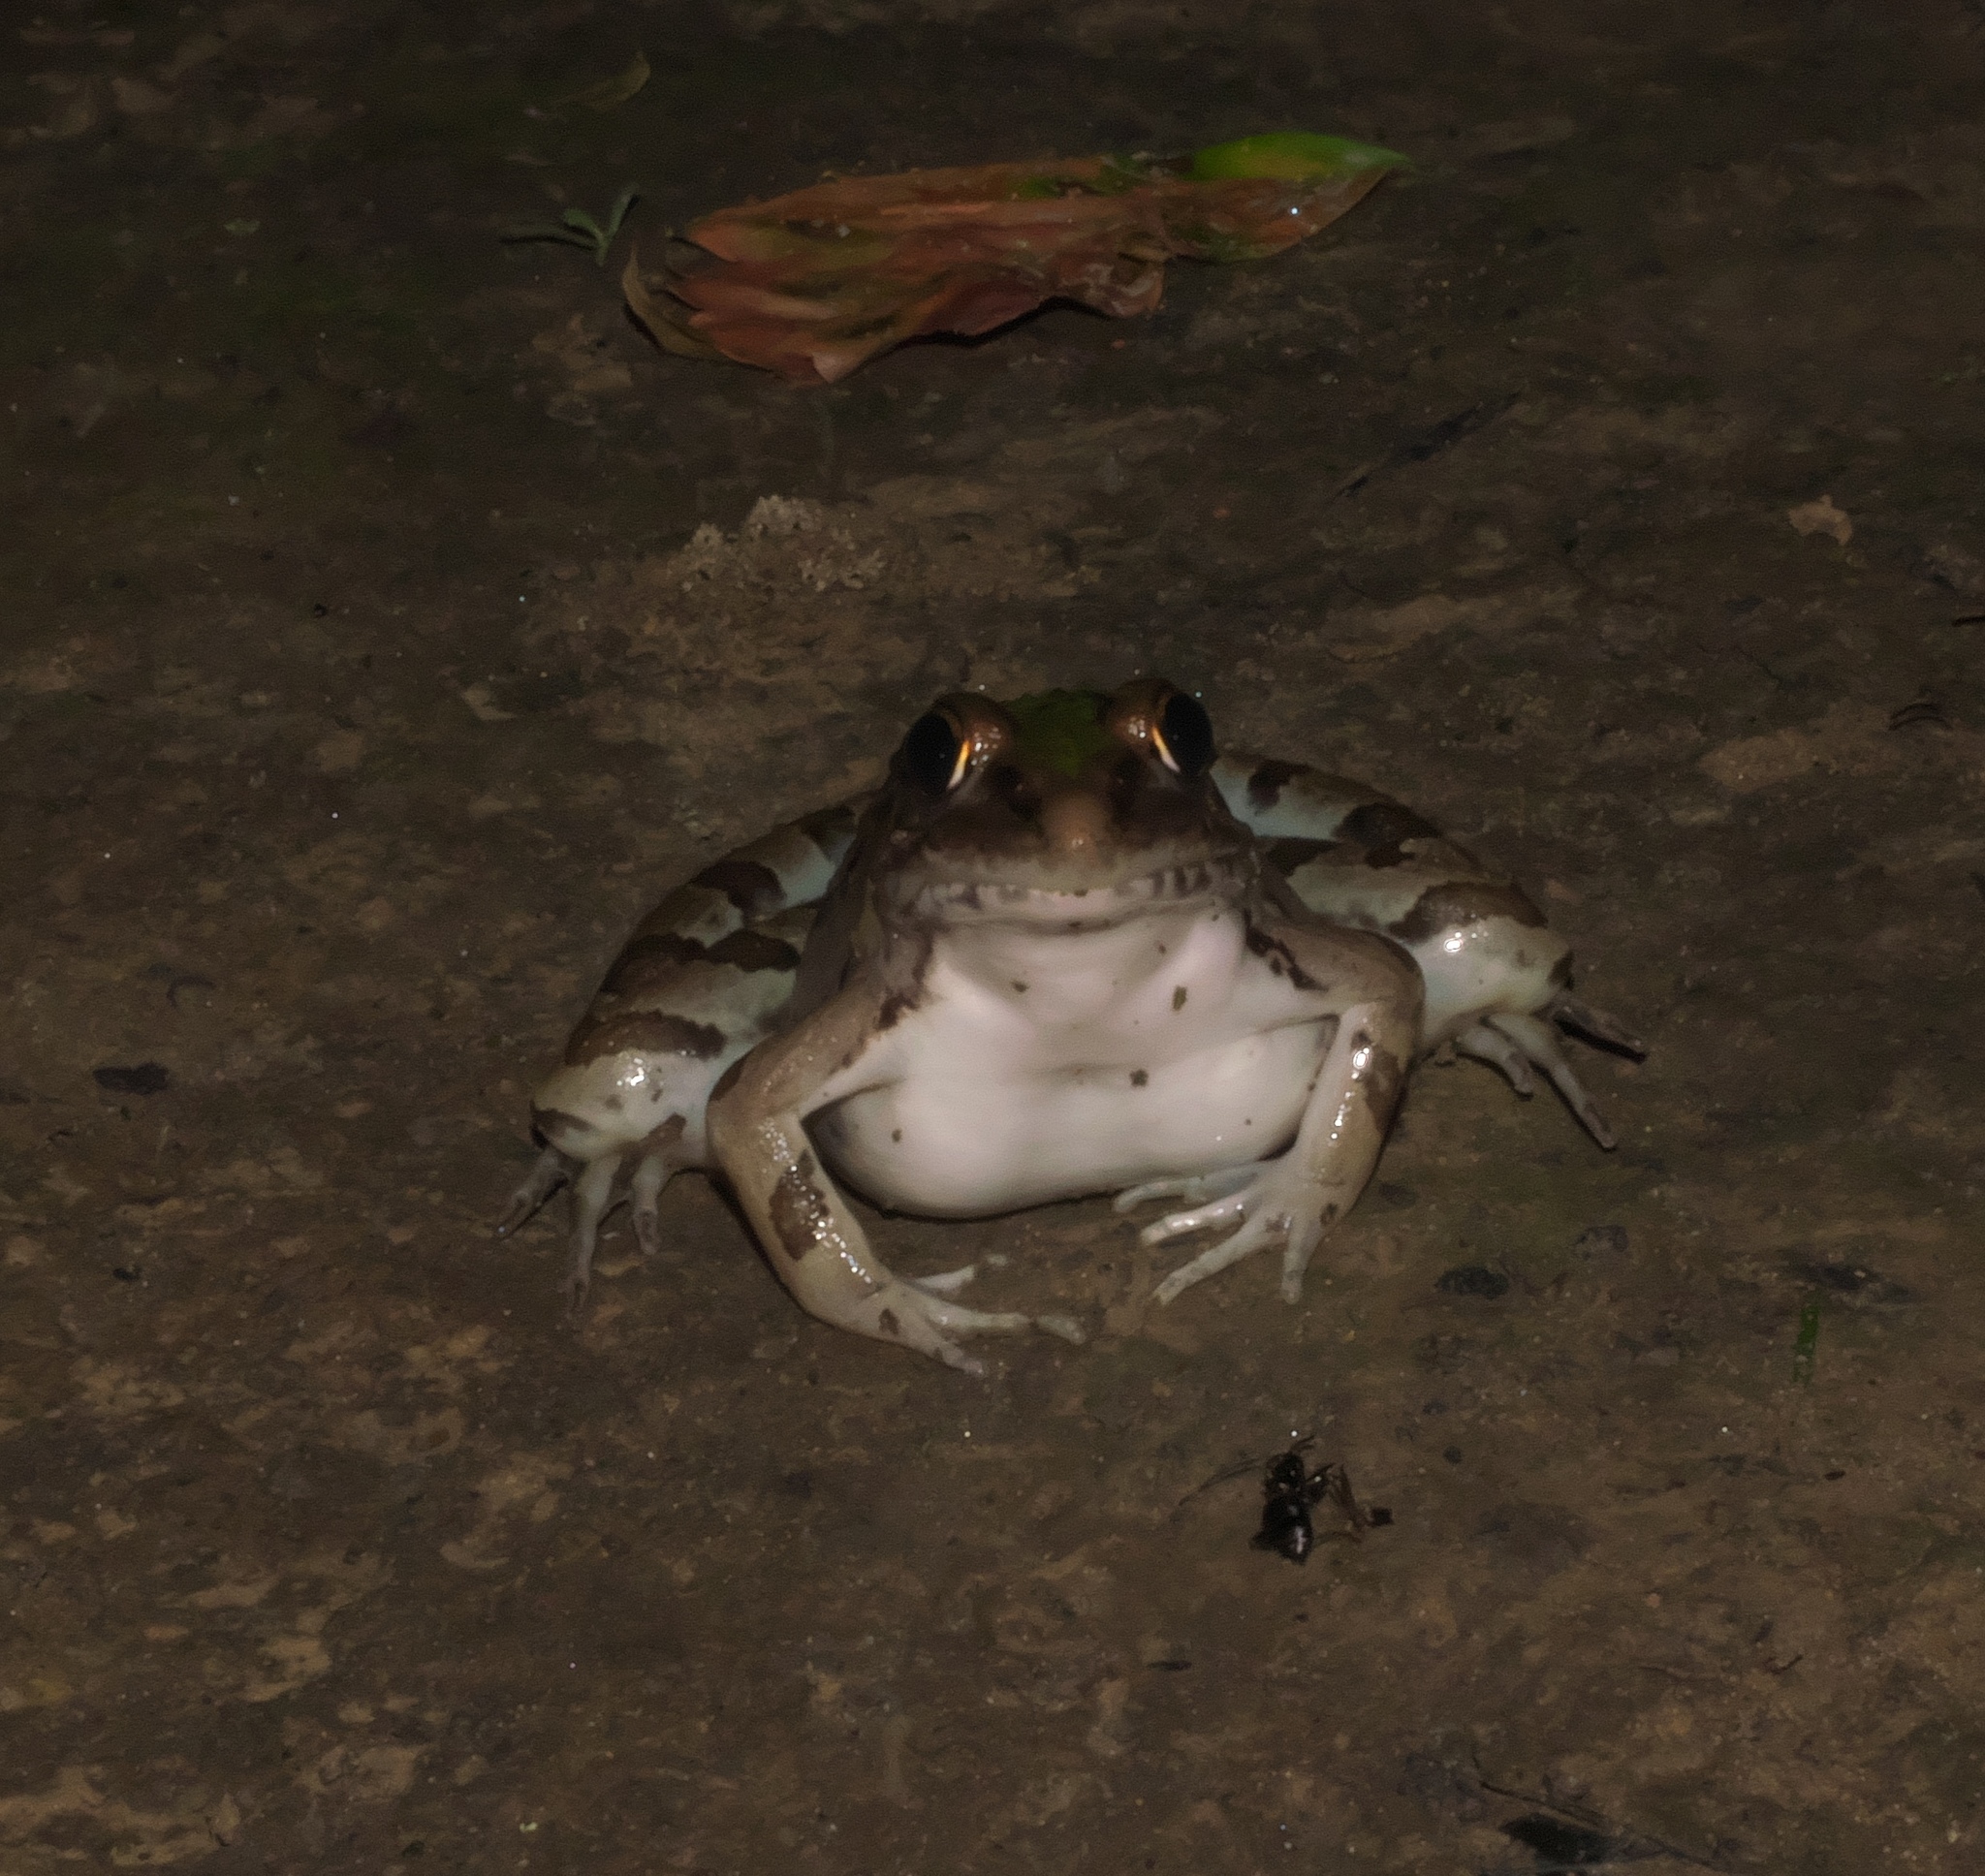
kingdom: Animalia
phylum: Chordata
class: Amphibia
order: Anura
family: Ranidae
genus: Lithobates
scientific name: Lithobates sphenocephalus
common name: Southern leopard frog
